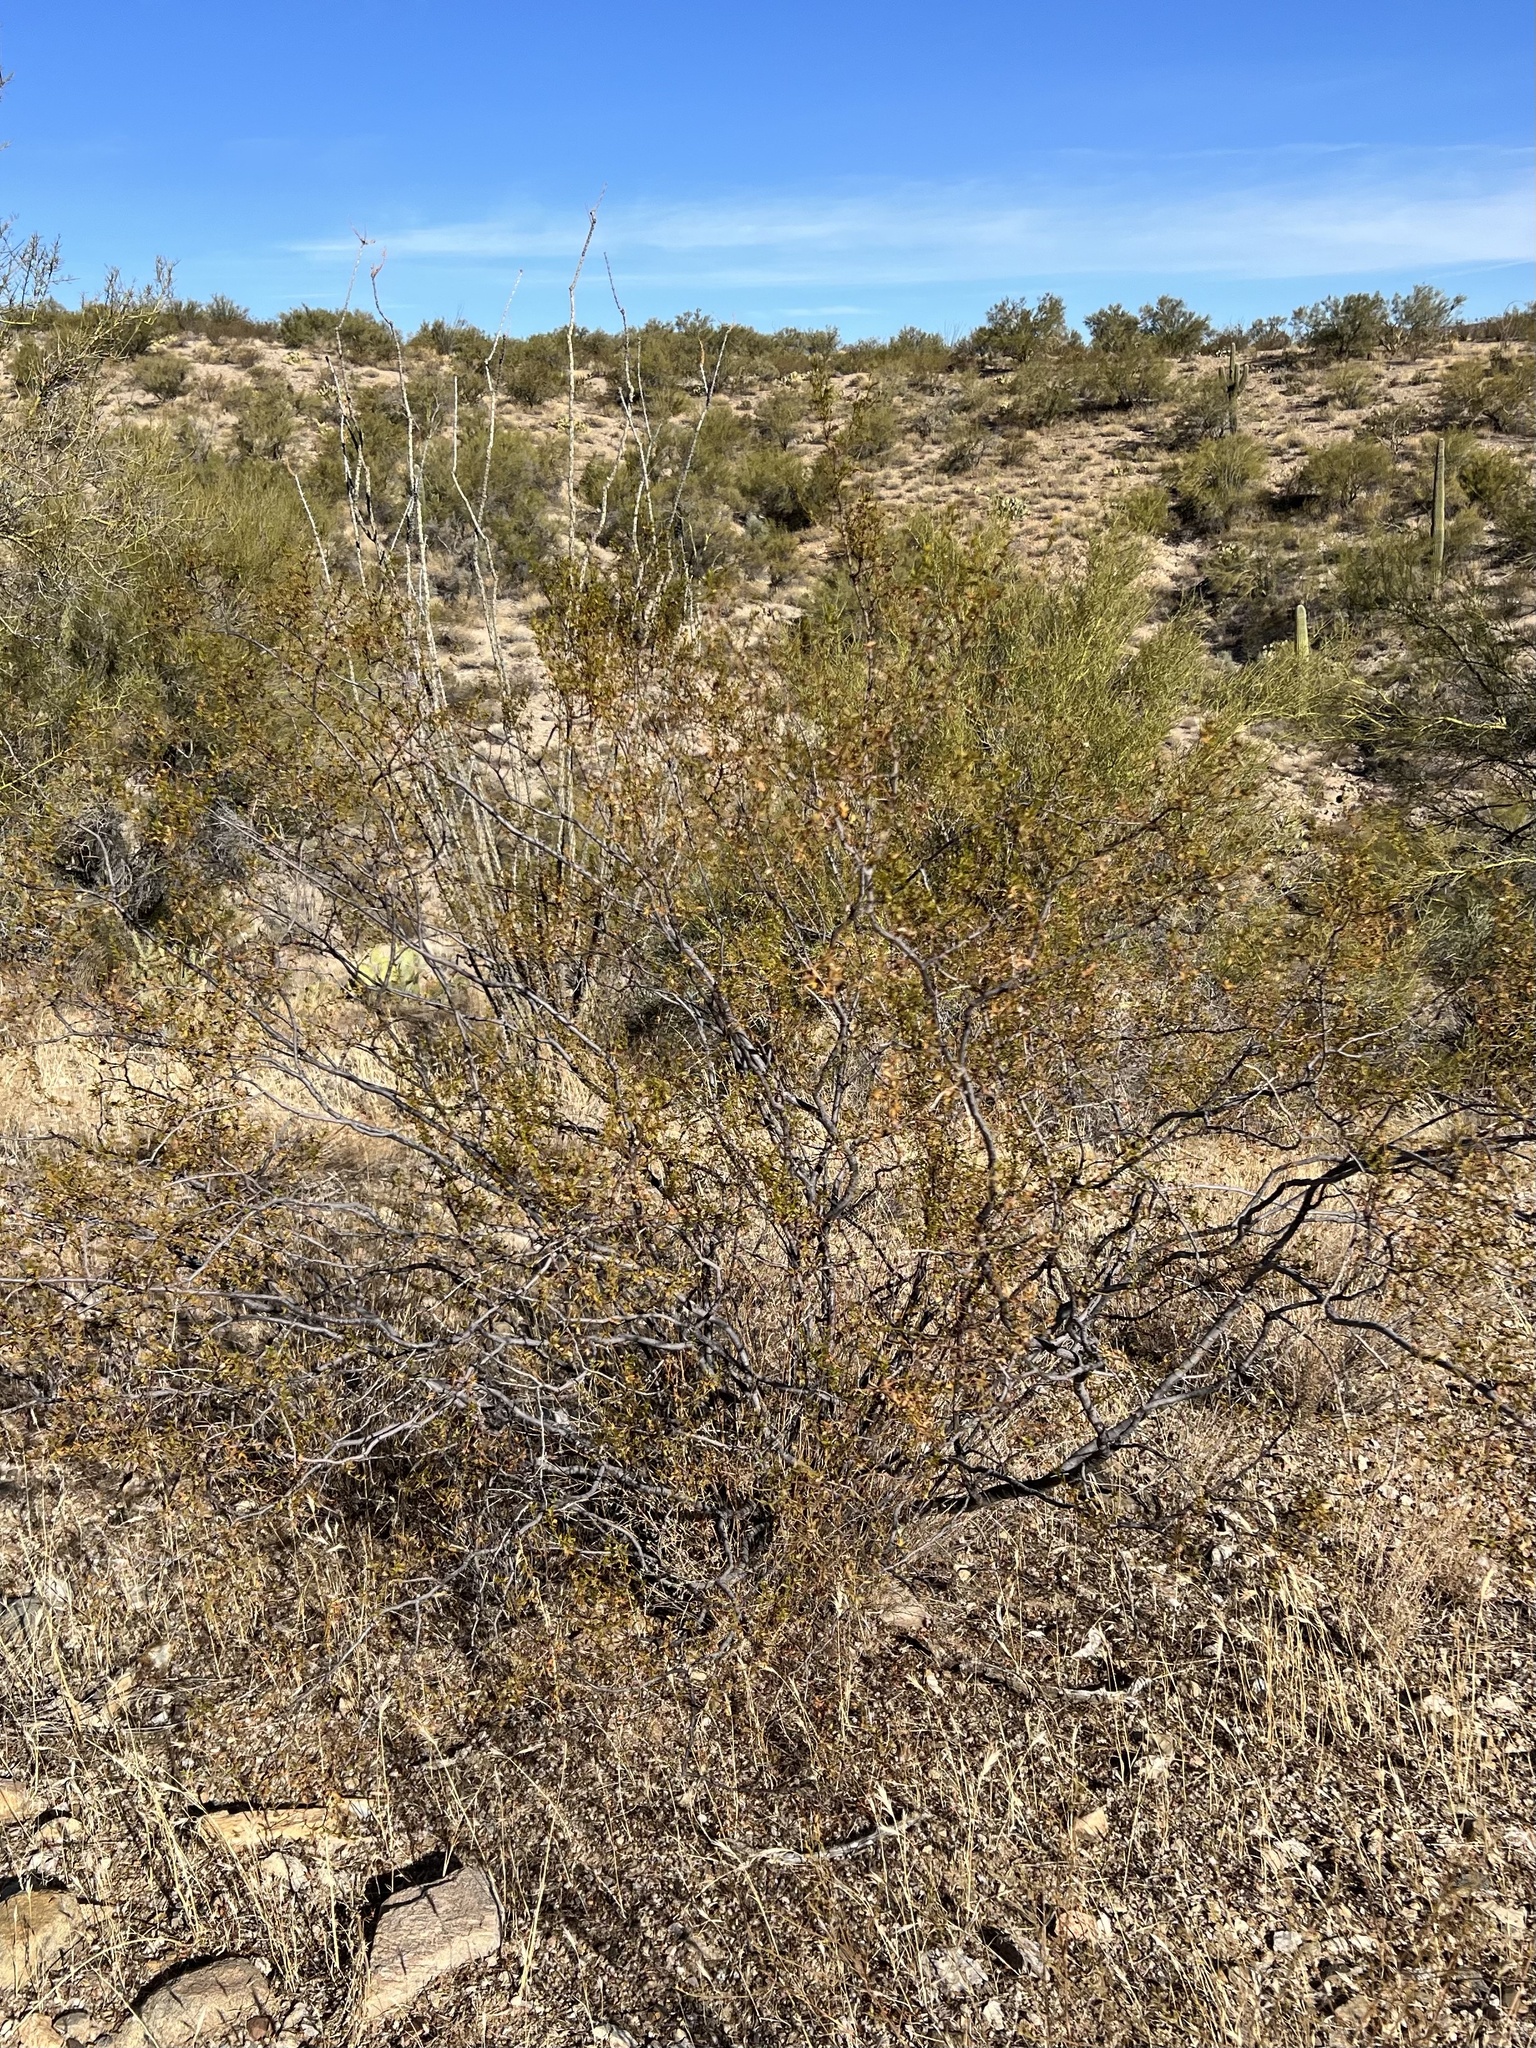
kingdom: Plantae
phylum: Tracheophyta
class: Magnoliopsida
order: Zygophyllales
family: Zygophyllaceae
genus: Larrea
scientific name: Larrea tridentata
